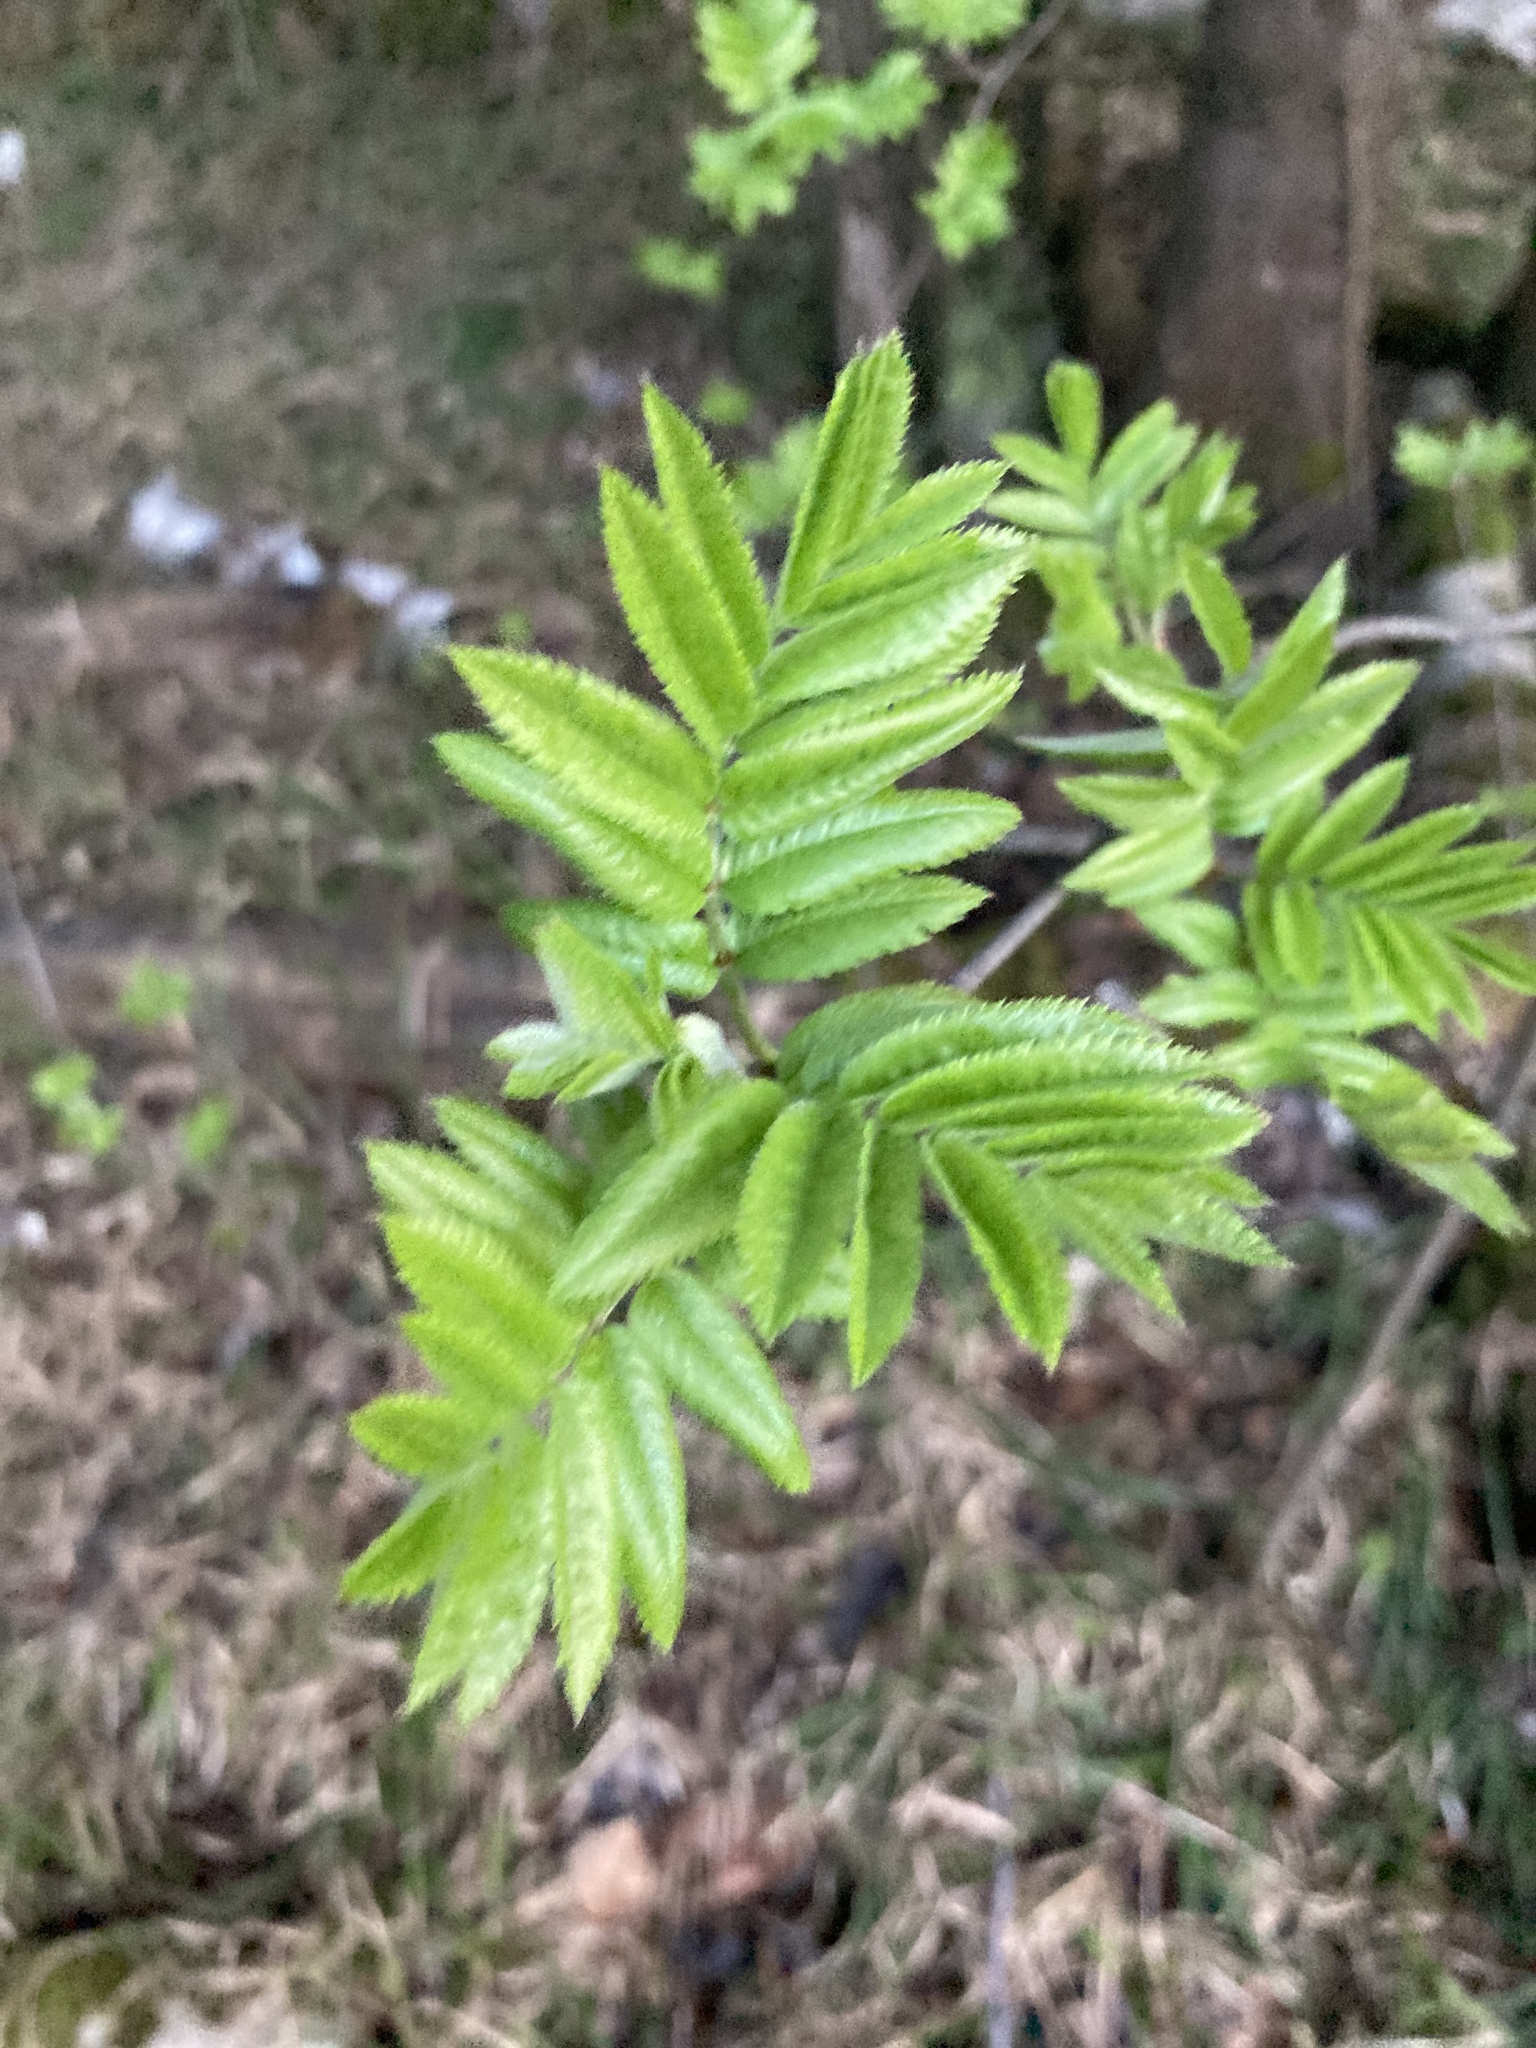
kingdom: Plantae
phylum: Tracheophyta
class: Magnoliopsida
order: Rosales
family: Rosaceae
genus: Sorbus
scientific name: Sorbus aucuparia
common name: Rowan
